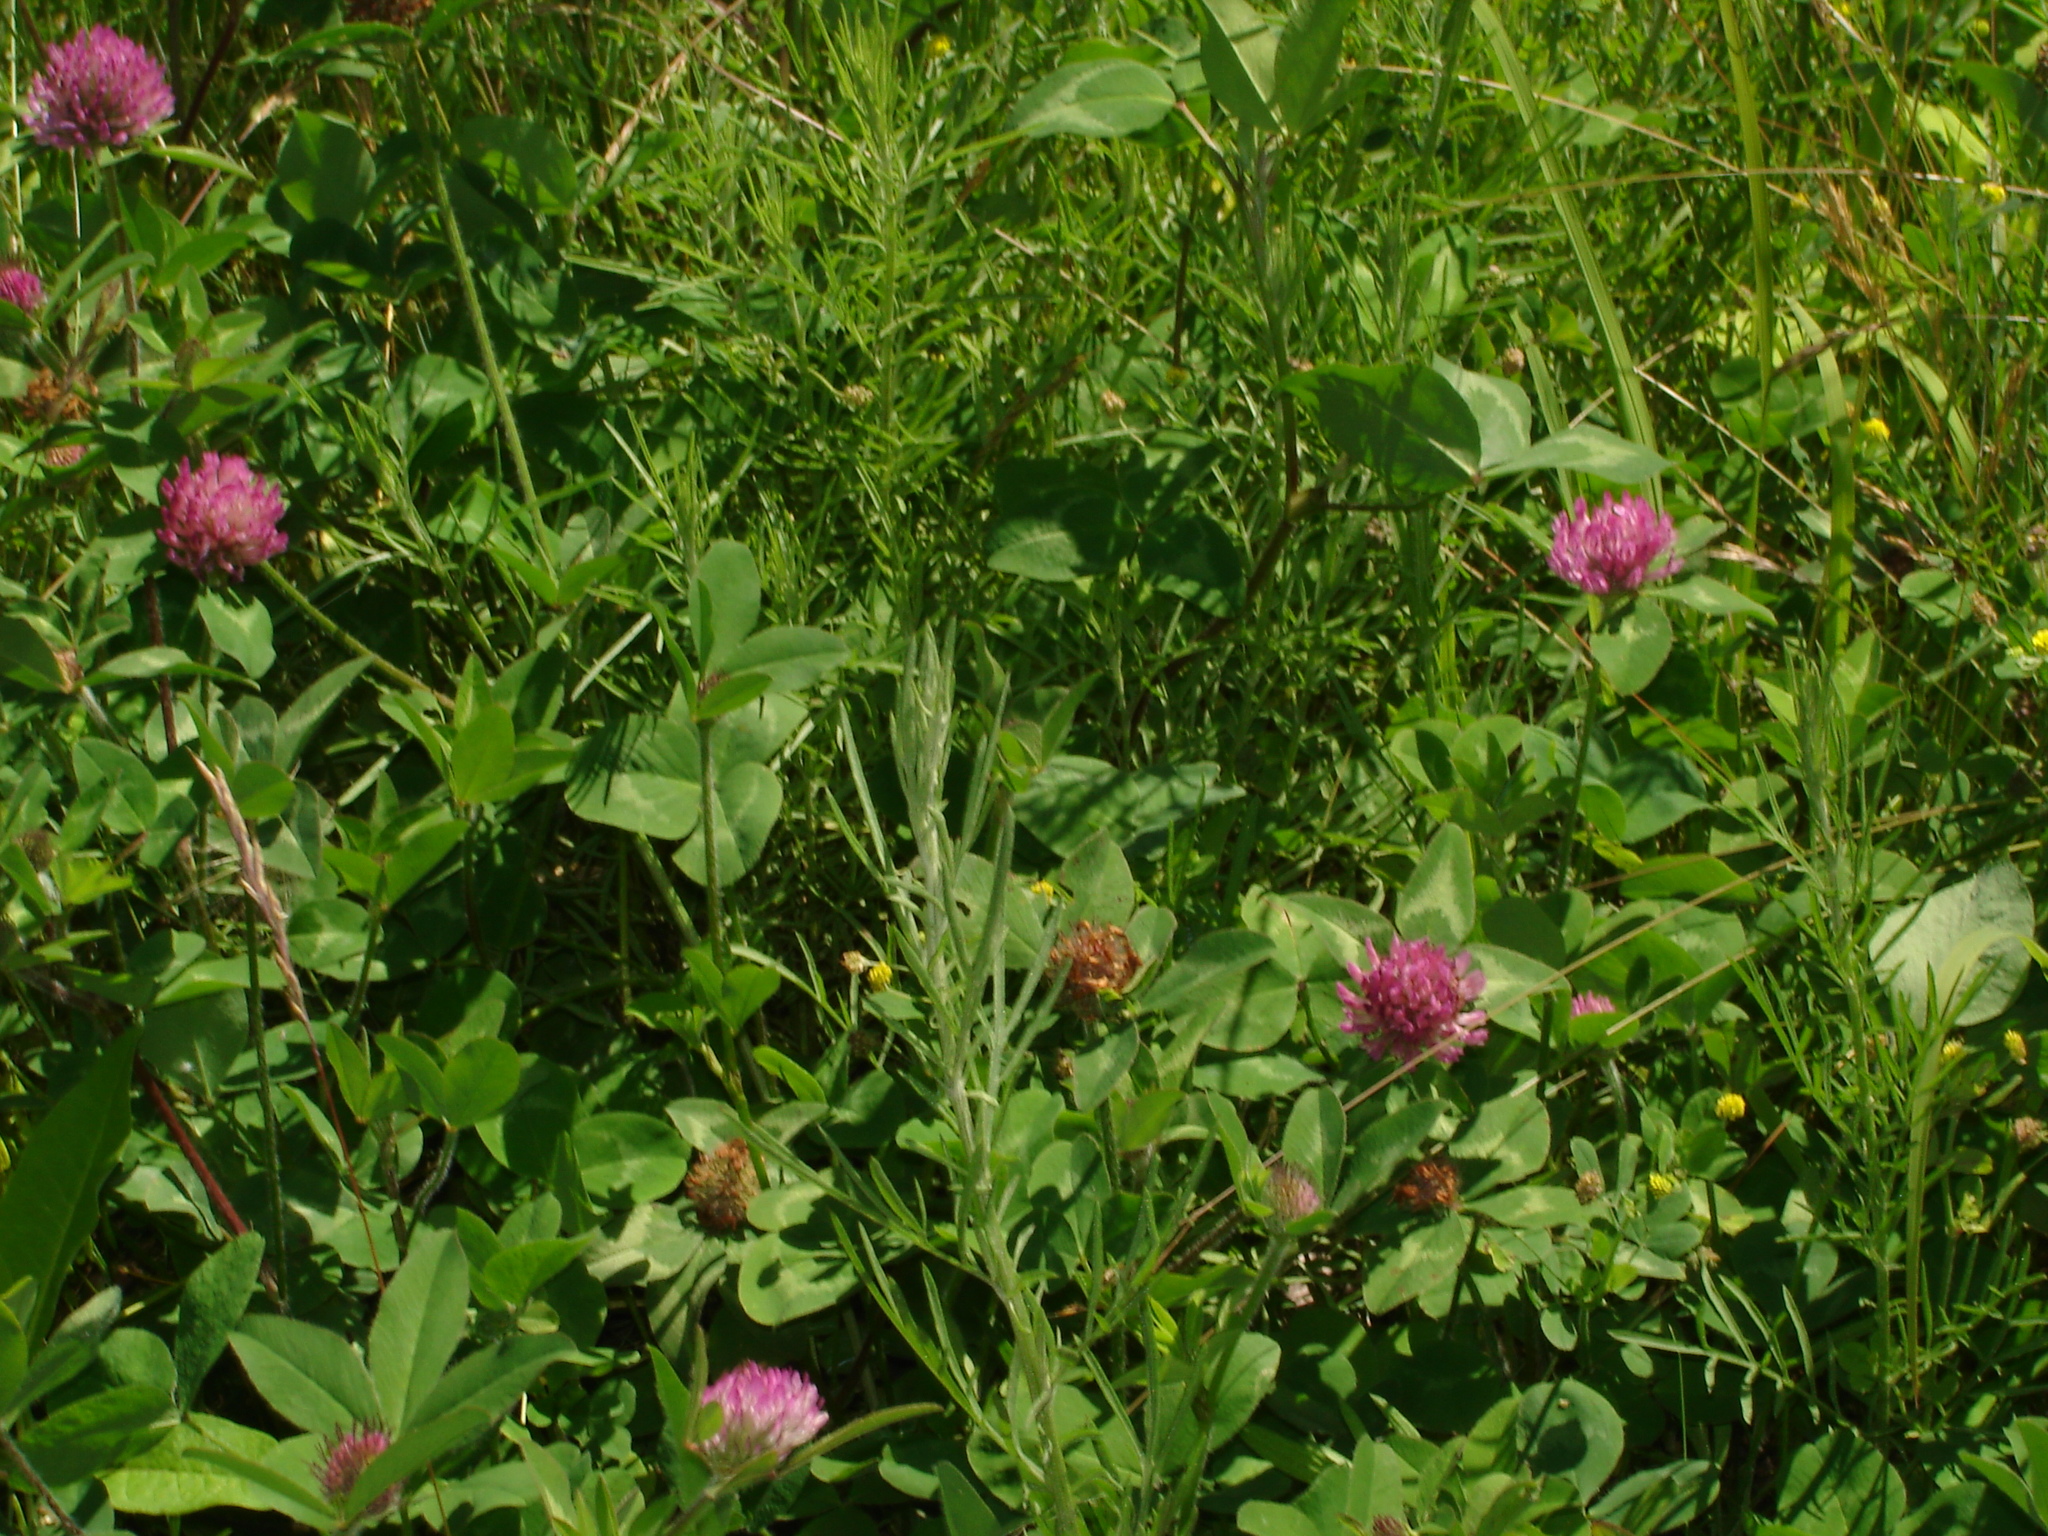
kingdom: Plantae
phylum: Tracheophyta
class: Magnoliopsida
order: Fabales
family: Fabaceae
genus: Trifolium
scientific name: Trifolium pratense
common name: Red clover
